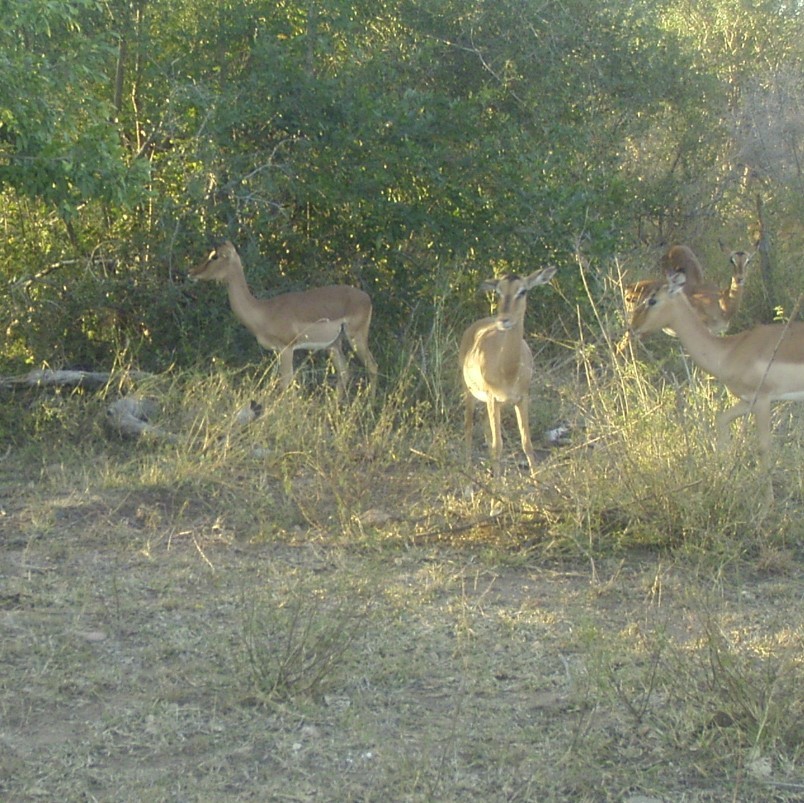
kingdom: Animalia
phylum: Chordata
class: Mammalia
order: Artiodactyla
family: Bovidae
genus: Aepyceros
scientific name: Aepyceros melampus
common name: Impala
